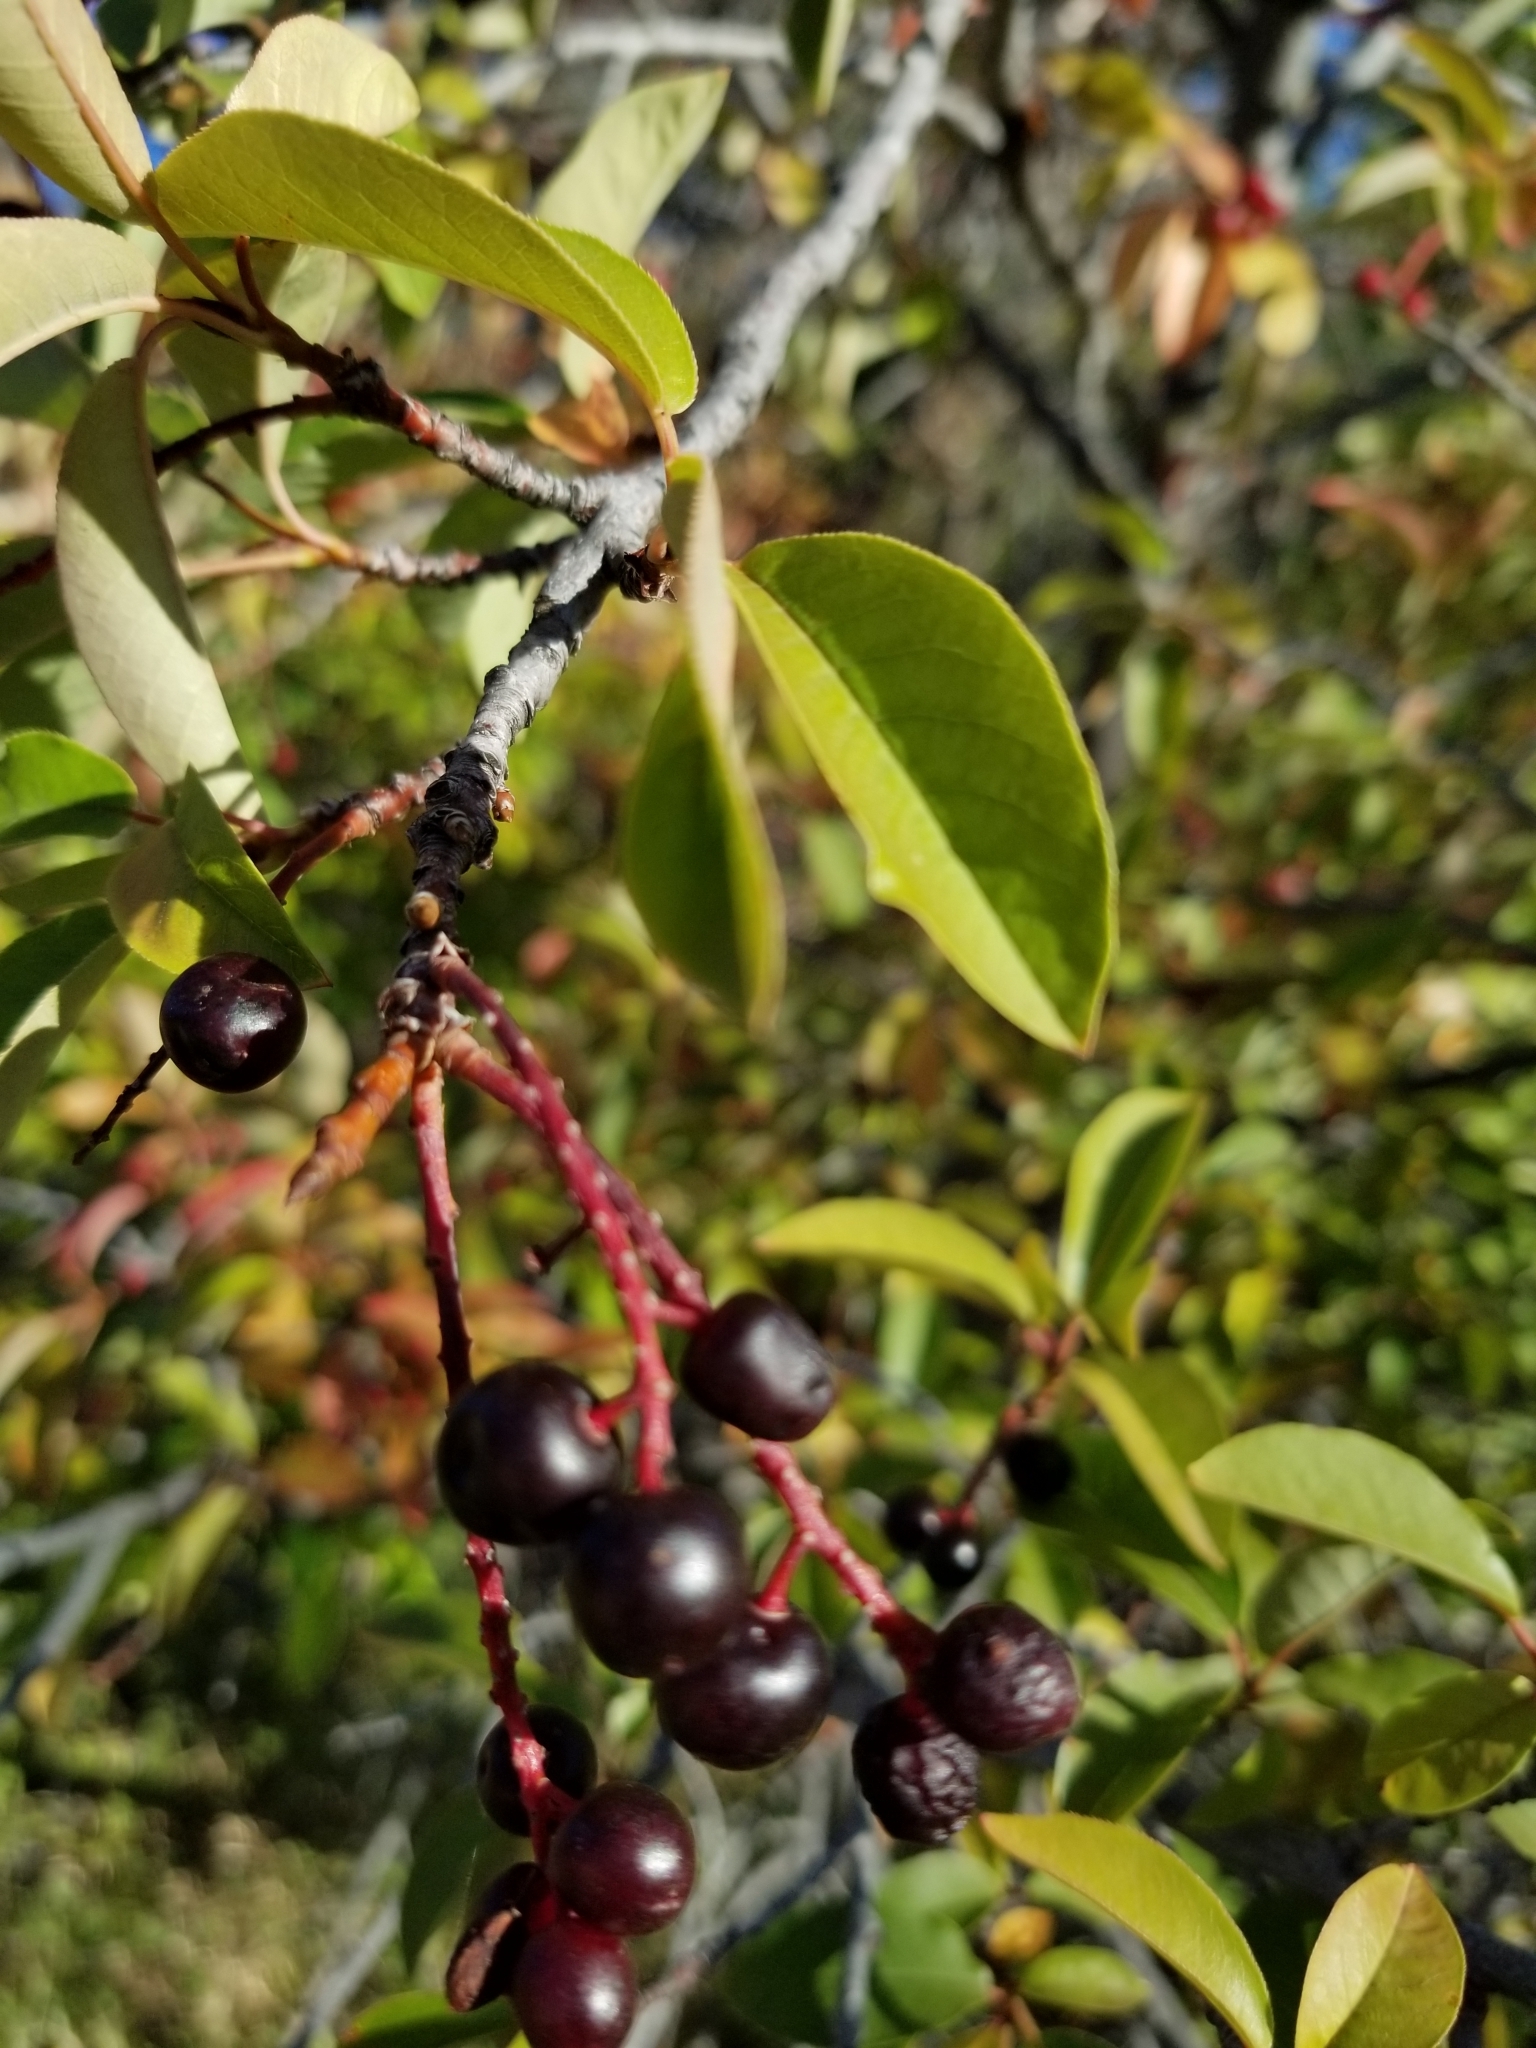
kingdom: Plantae
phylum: Tracheophyta
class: Magnoliopsida
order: Rosales
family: Rosaceae
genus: Prunus
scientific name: Prunus virginiana
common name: Chokecherry
